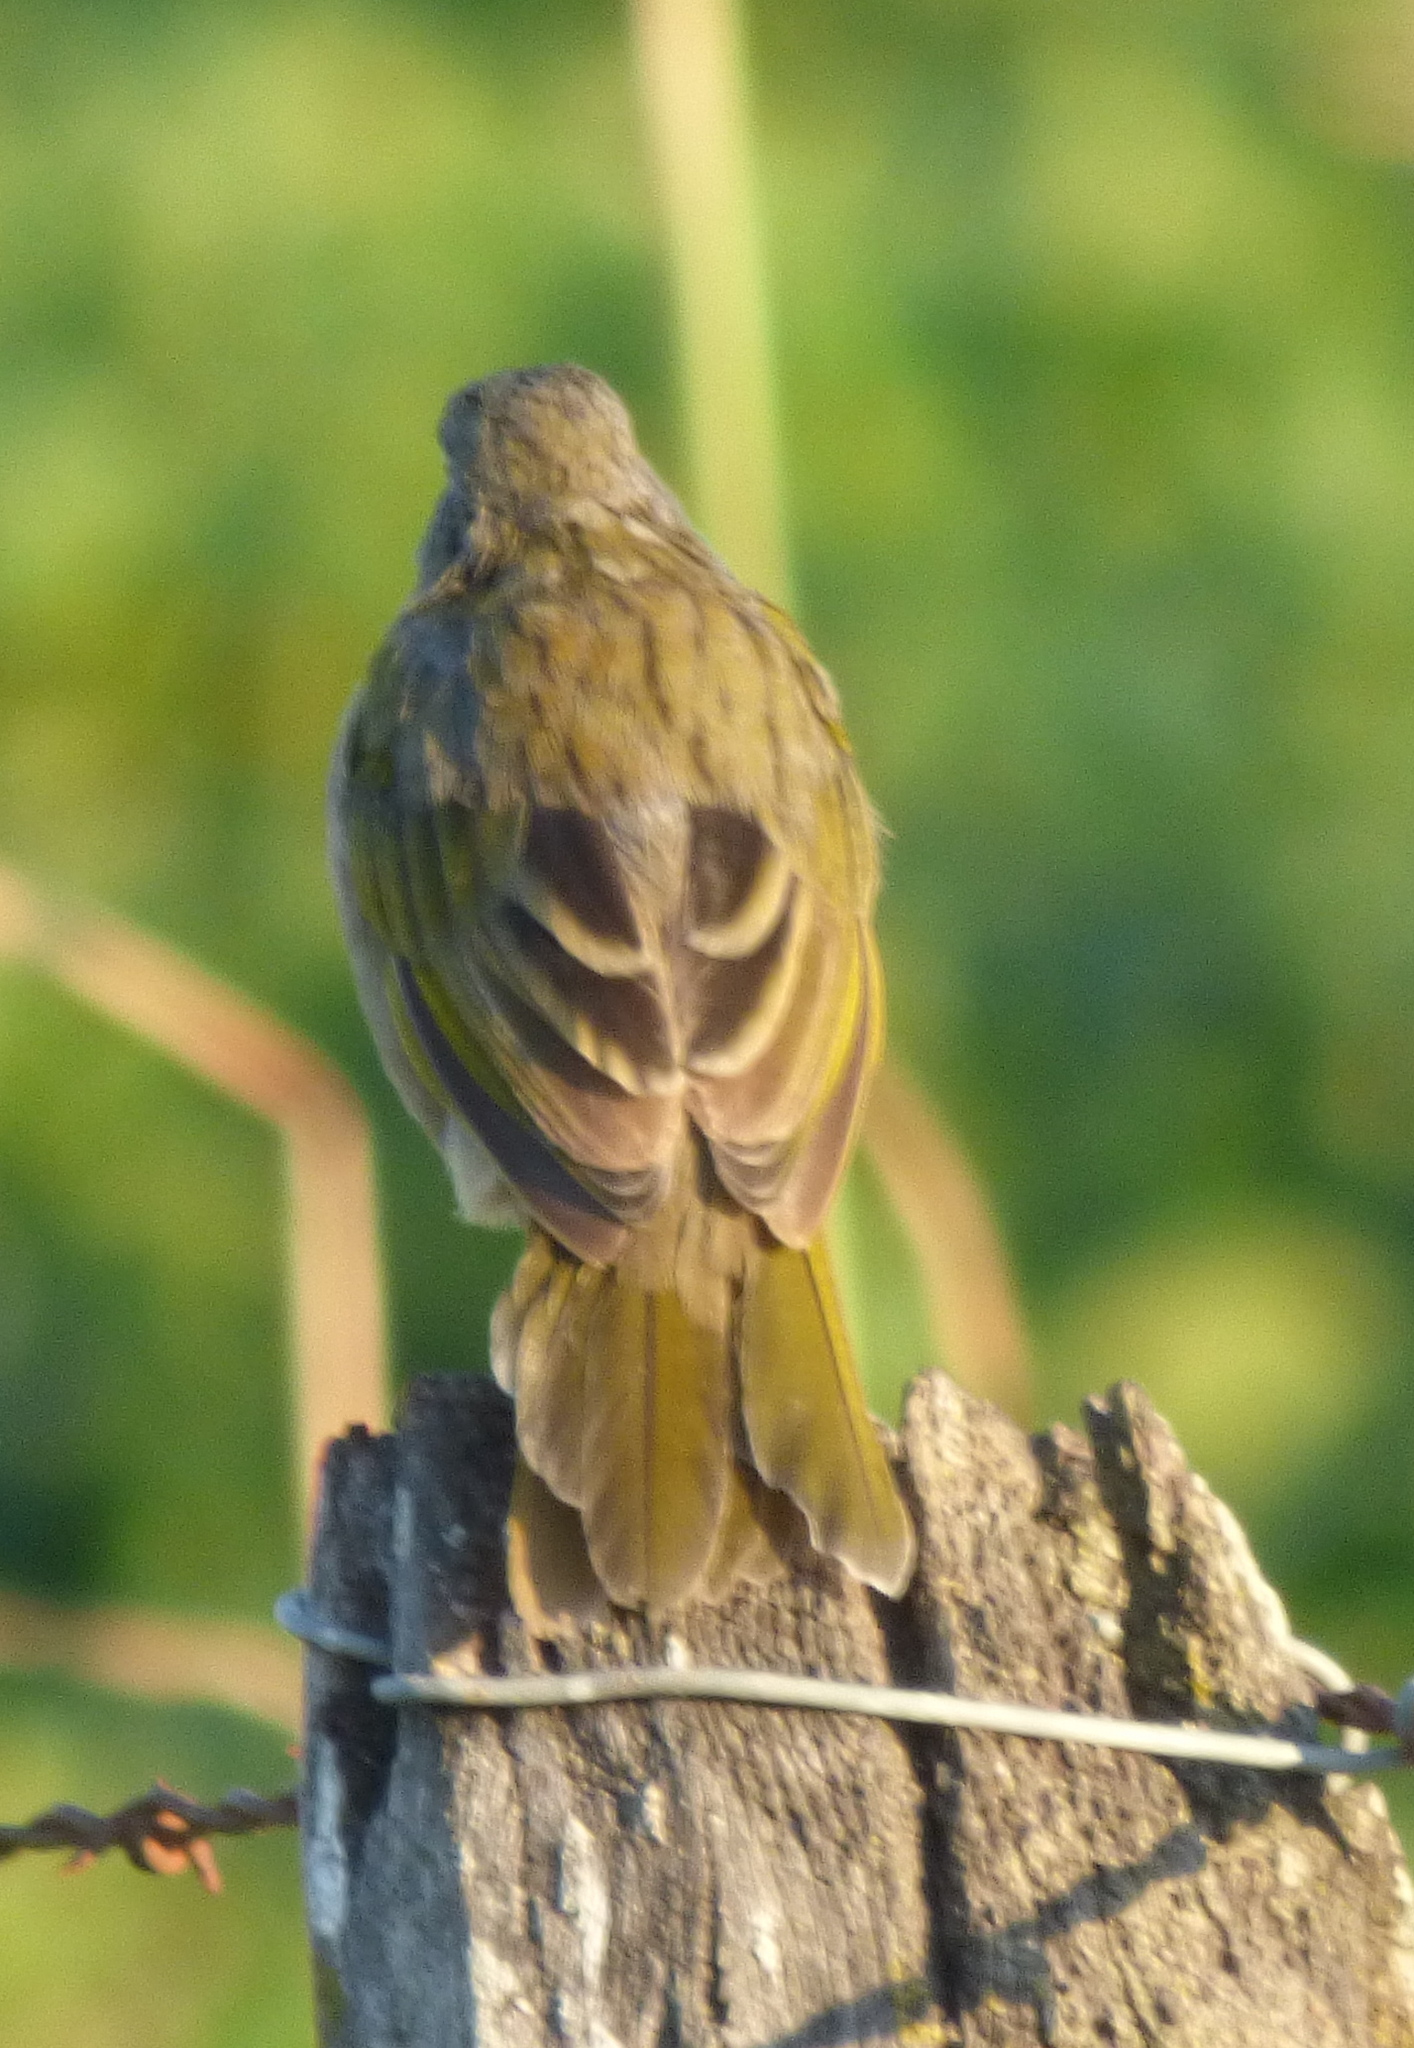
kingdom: Animalia
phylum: Chordata
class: Aves
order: Passeriformes
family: Thraupidae
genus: Embernagra
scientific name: Embernagra platensis
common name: Pampa finch
